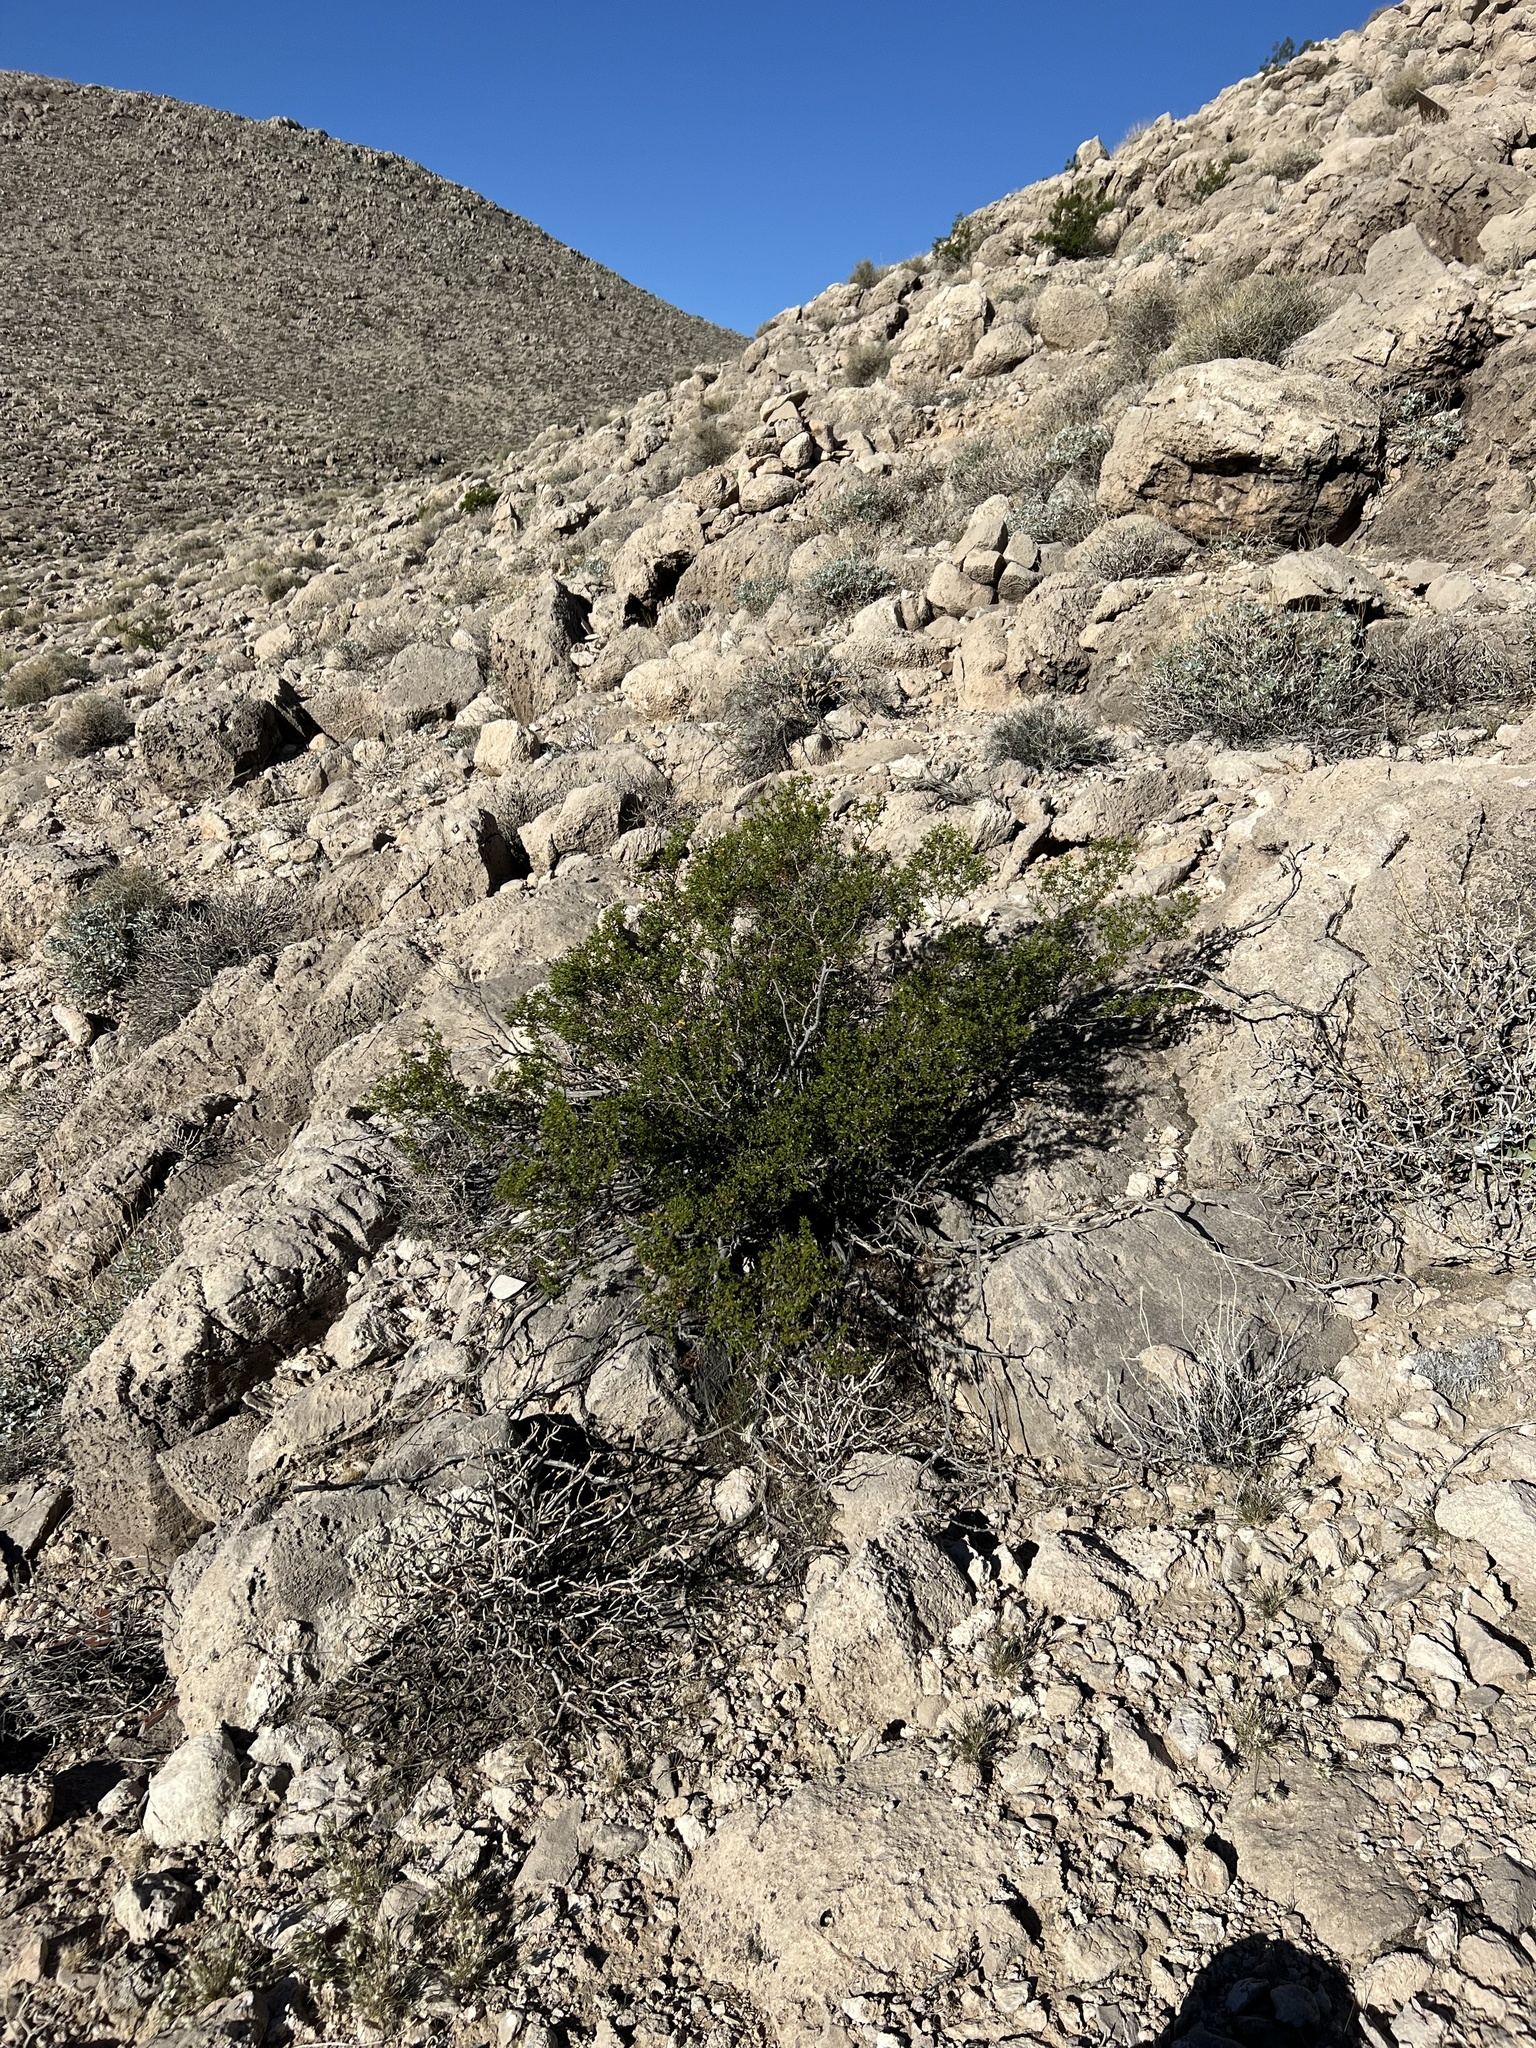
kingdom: Plantae
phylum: Tracheophyta
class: Magnoliopsida
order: Zygophyllales
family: Zygophyllaceae
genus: Larrea
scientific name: Larrea tridentata
